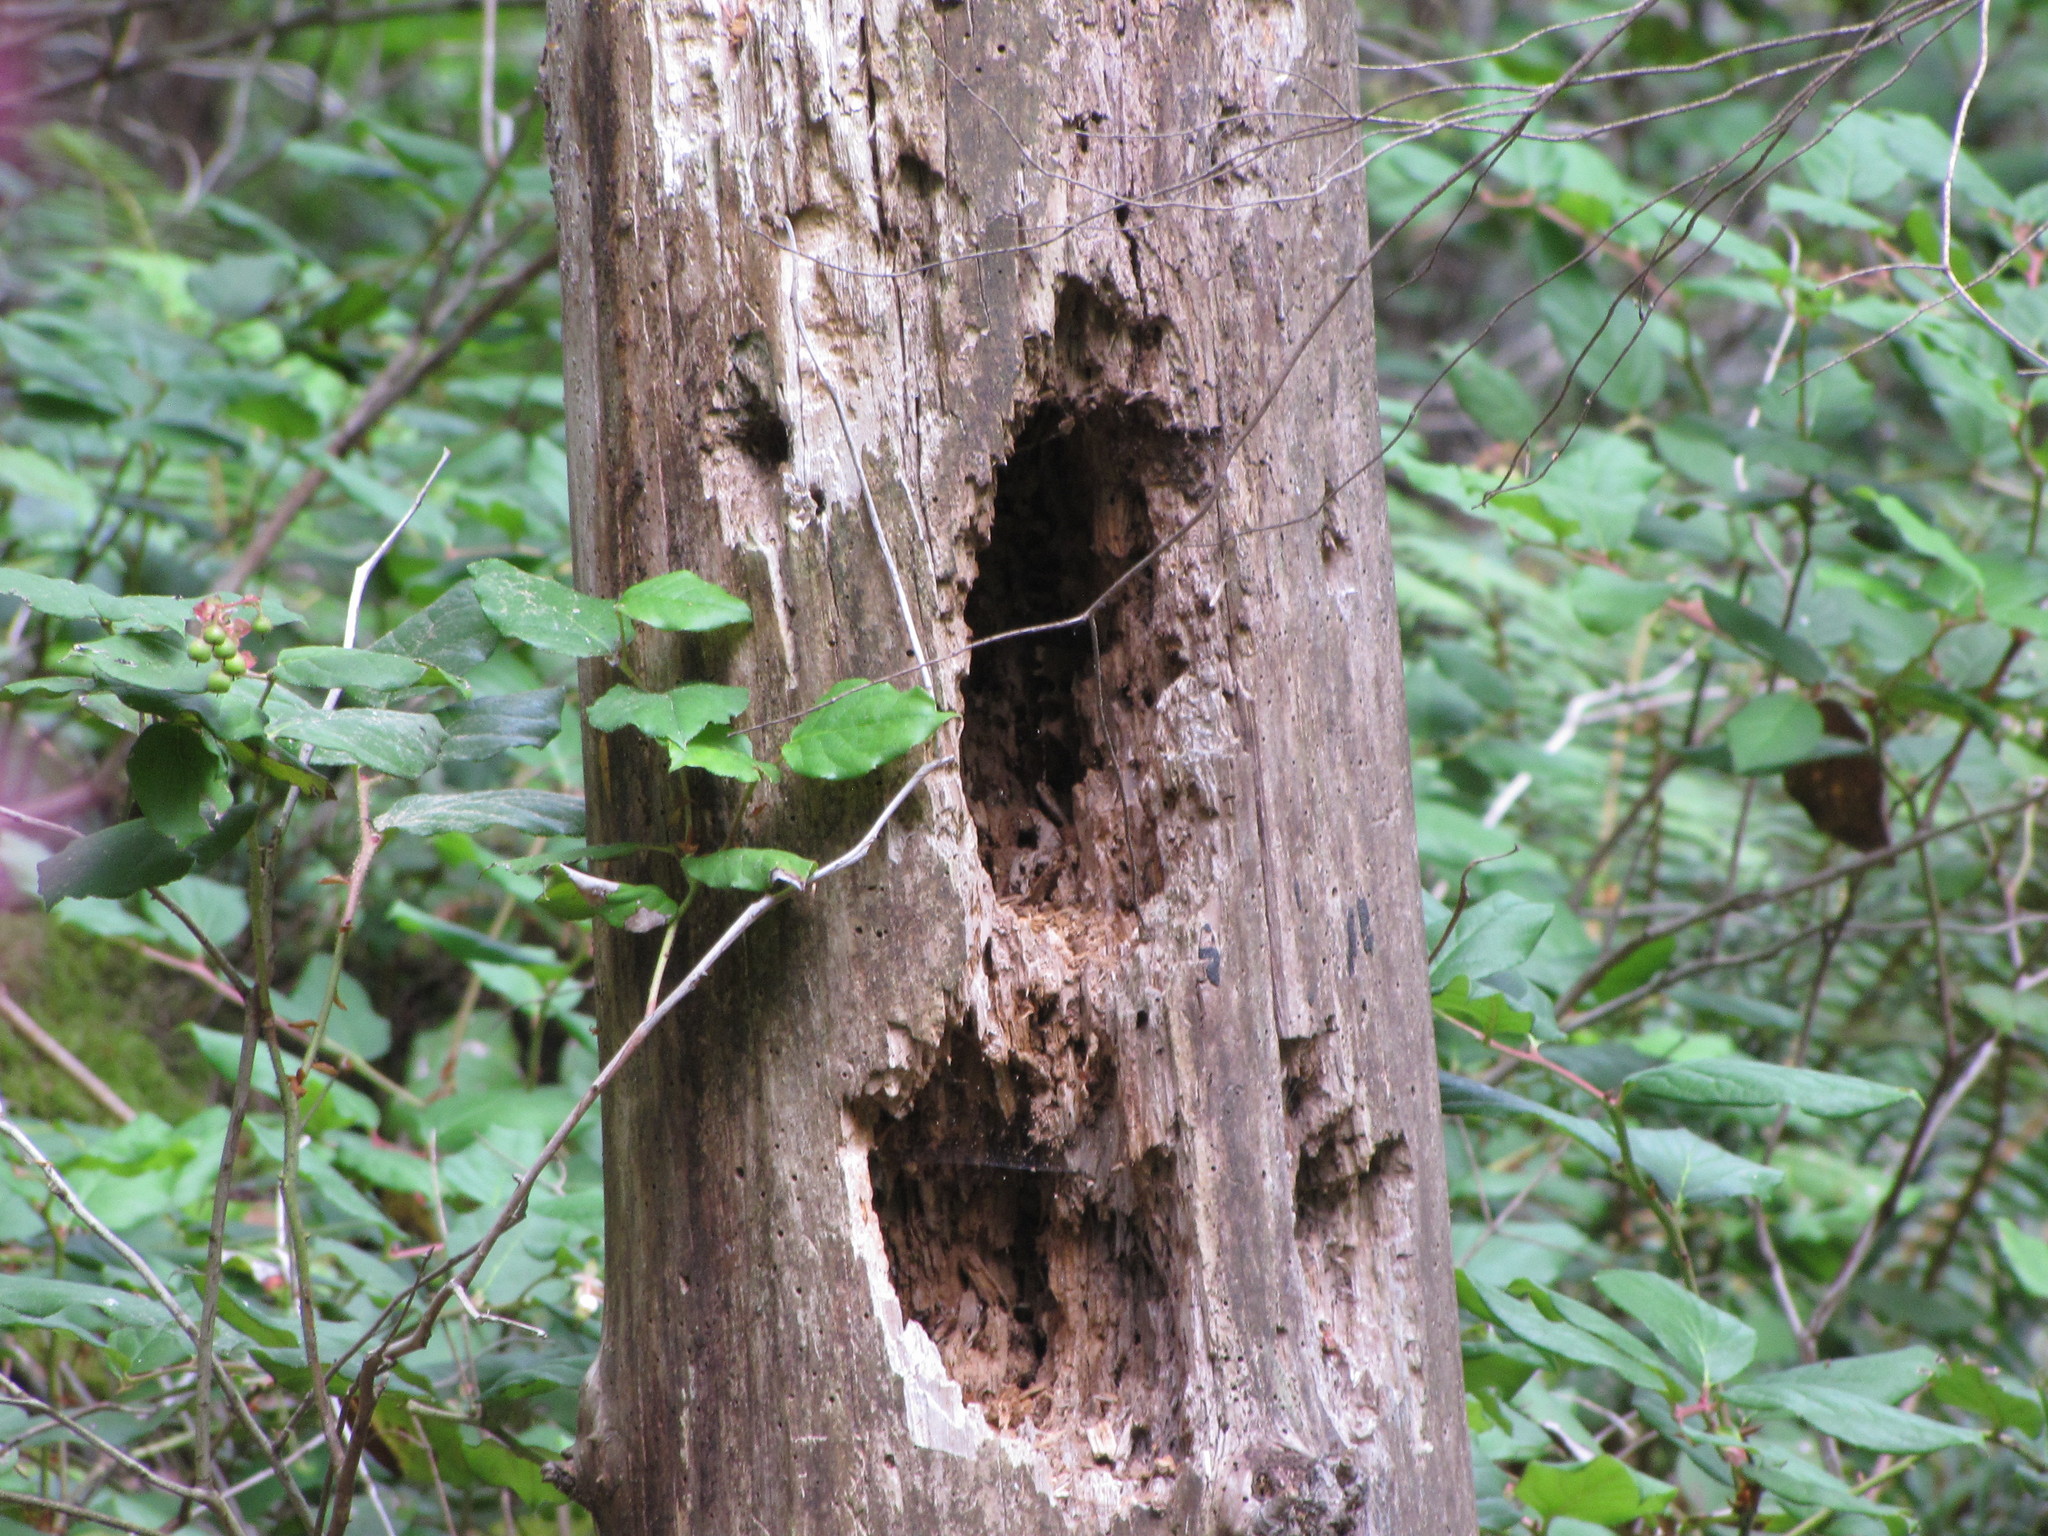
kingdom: Animalia
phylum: Chordata
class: Aves
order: Piciformes
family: Picidae
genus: Dryocopus
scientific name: Dryocopus pileatus
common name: Pileated woodpecker
